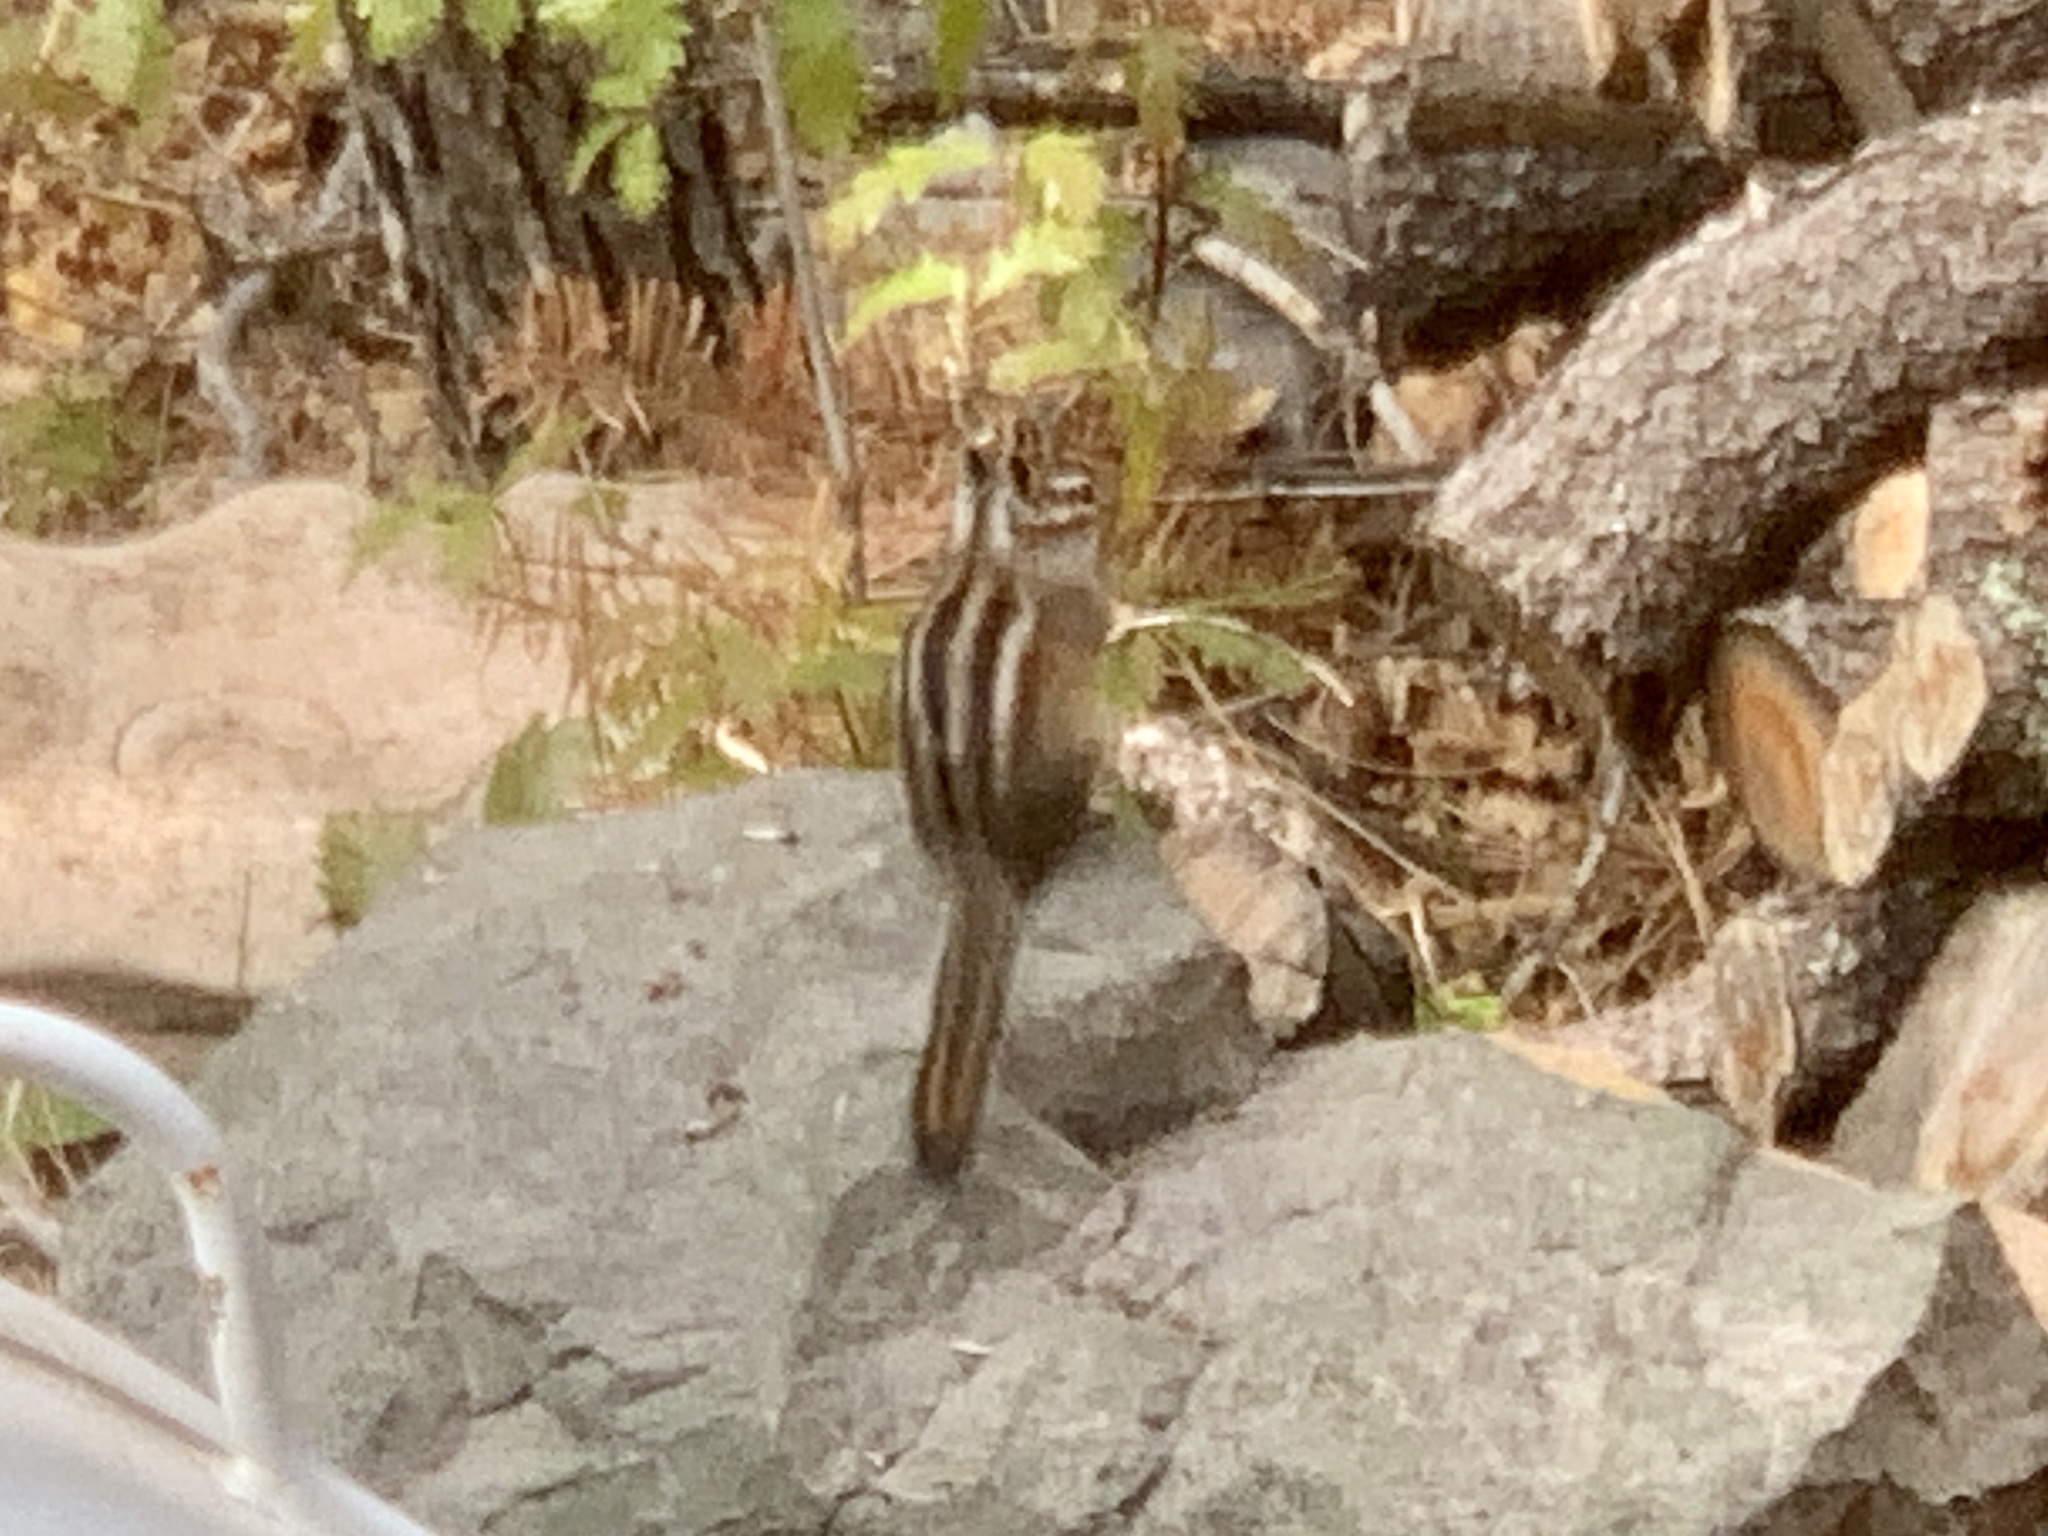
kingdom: Animalia
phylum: Chordata
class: Mammalia
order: Rodentia
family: Sciuridae
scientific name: Sciuridae
